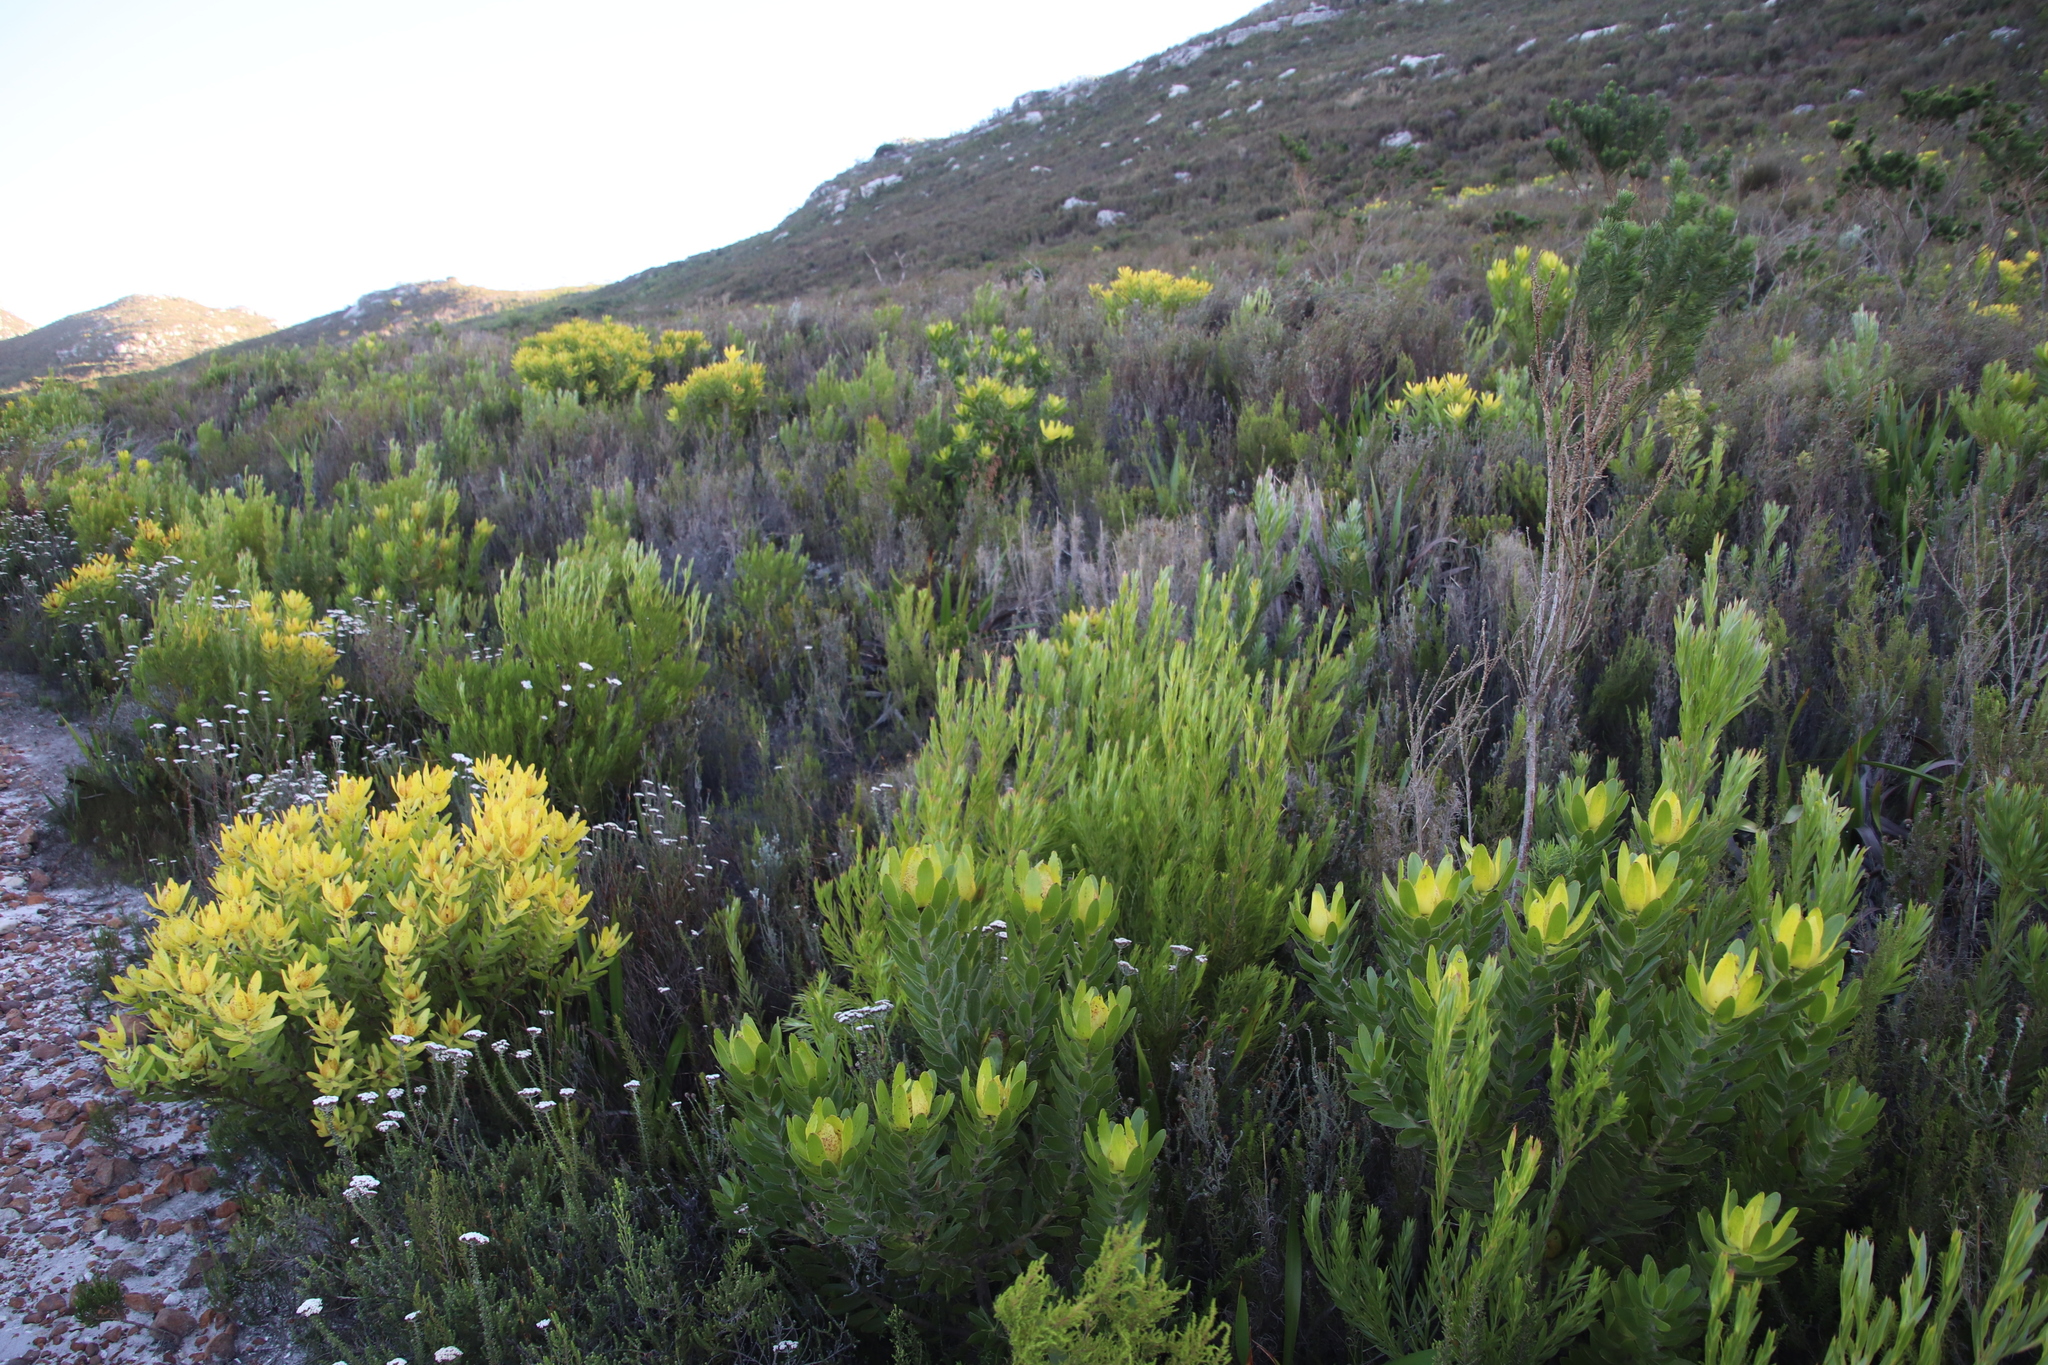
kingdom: Plantae
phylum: Tracheophyta
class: Magnoliopsida
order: Proteales
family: Proteaceae
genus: Leucadendron
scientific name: Leucadendron xanthoconus
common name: Sickle-leaf conebush
